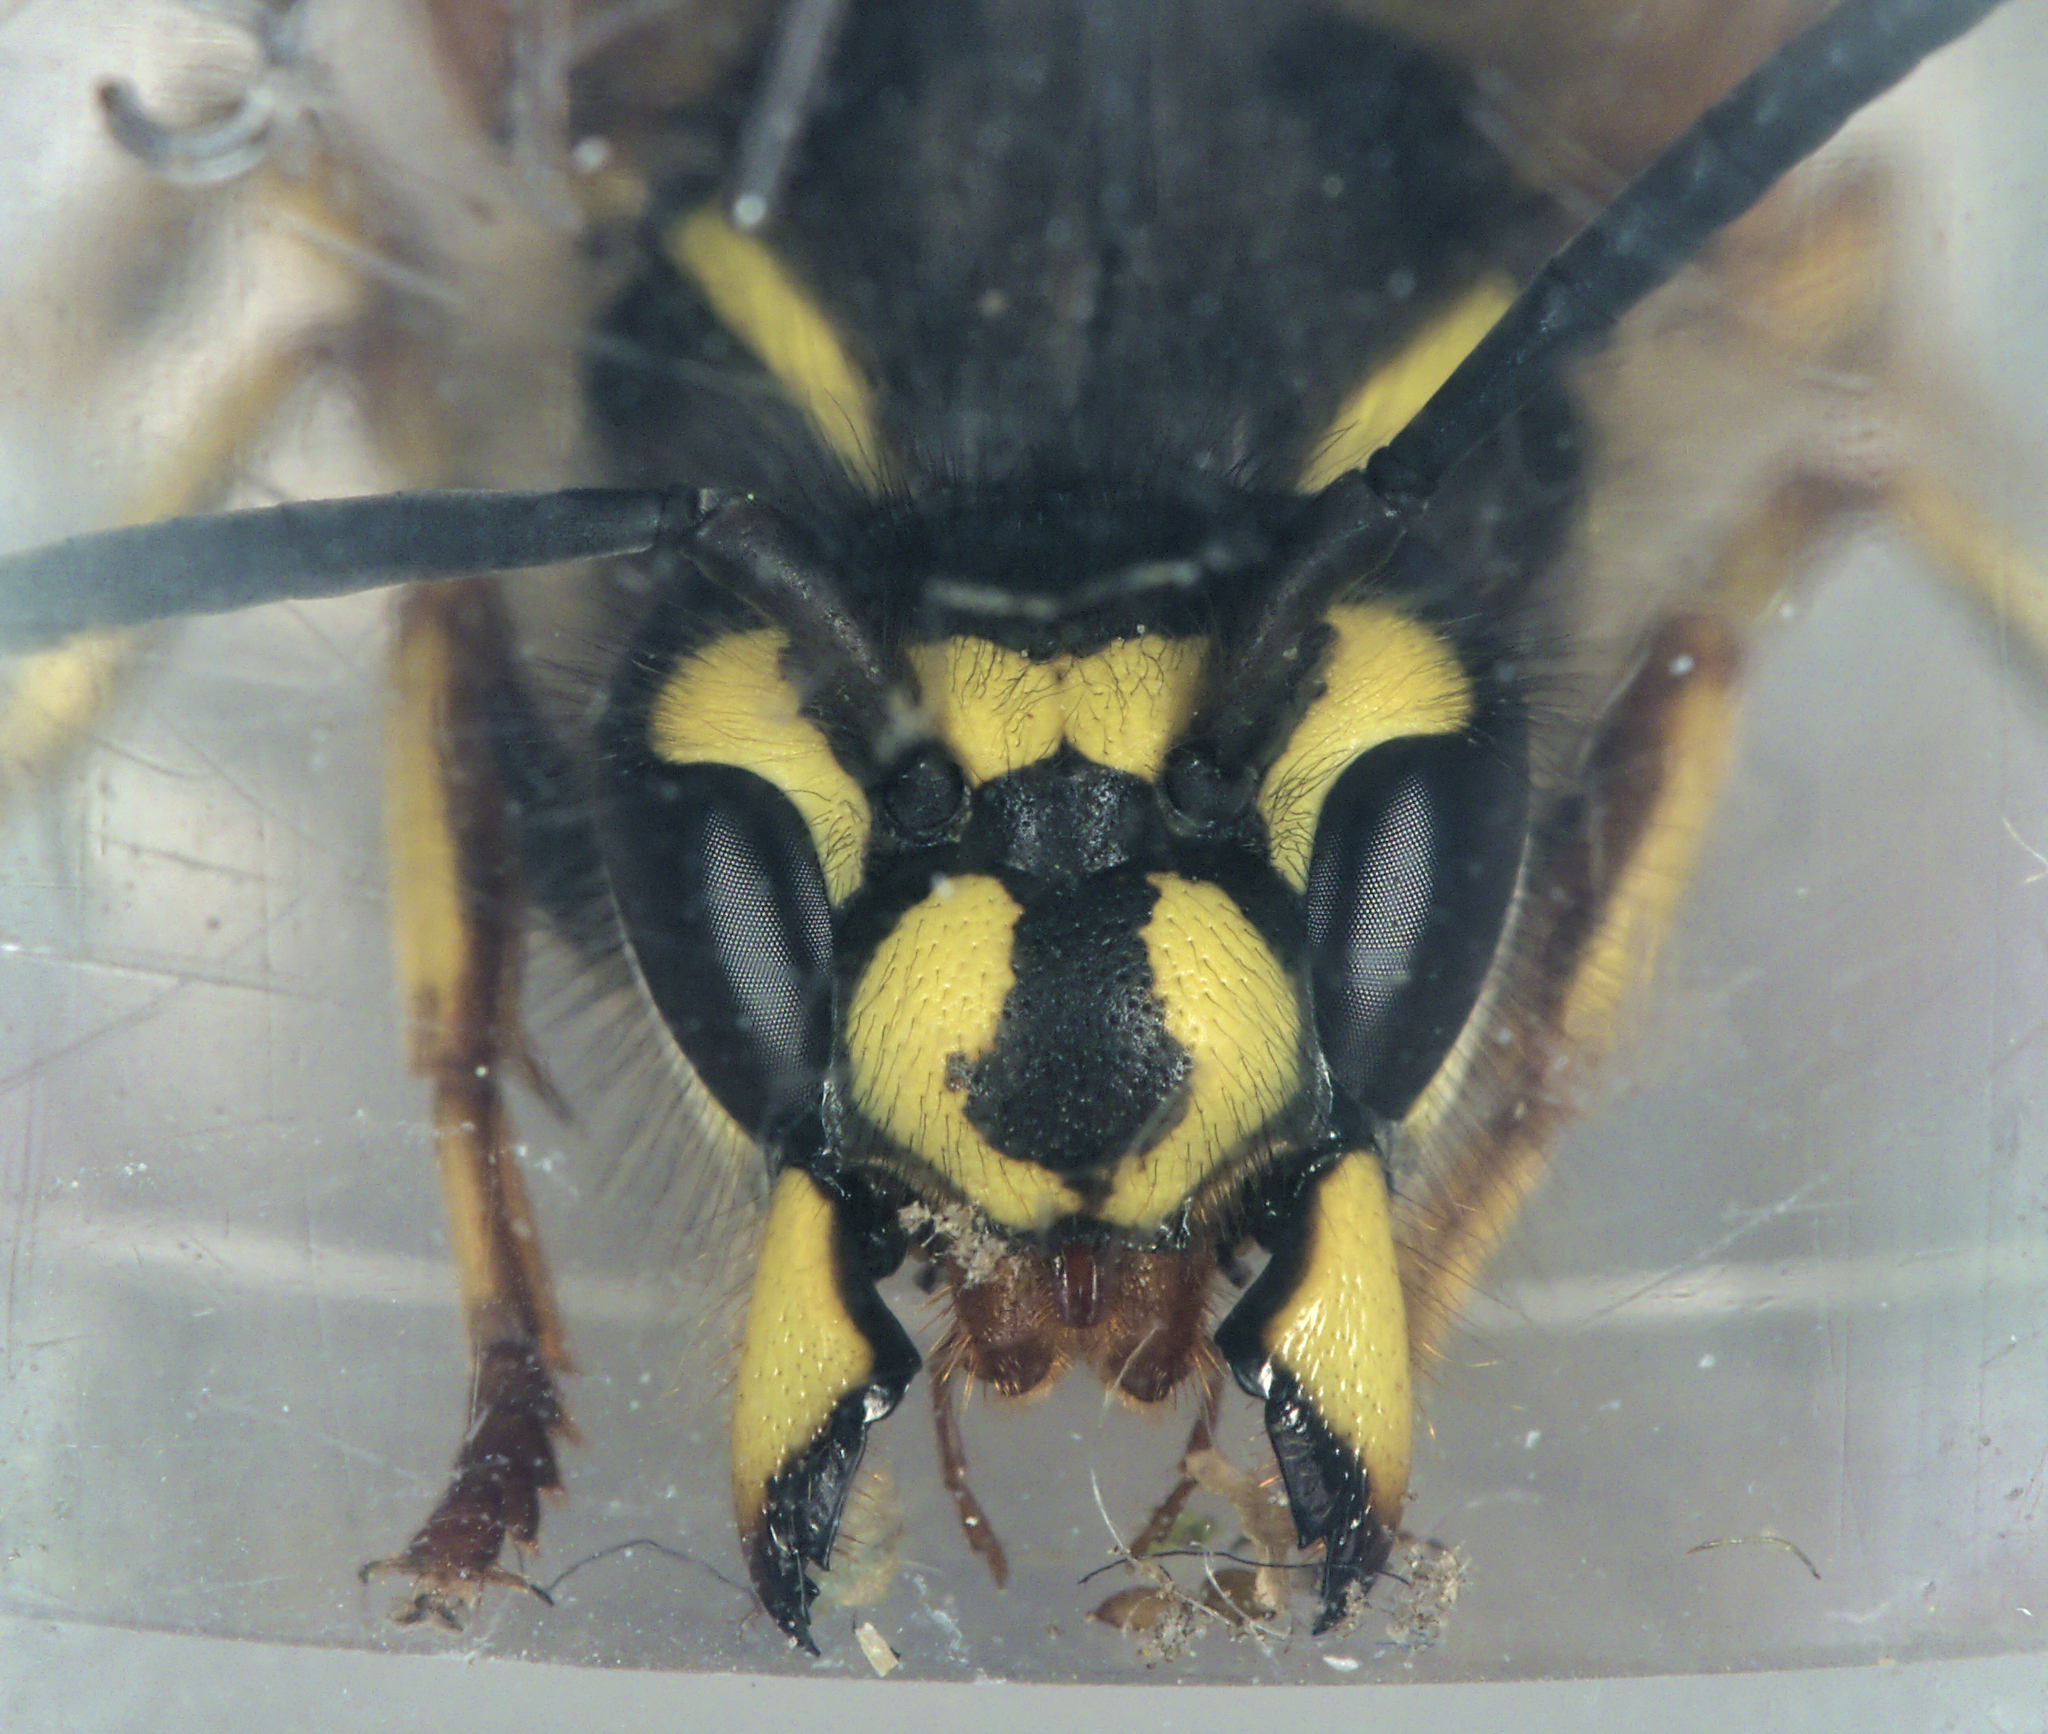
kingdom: Animalia
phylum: Arthropoda
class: Insecta
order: Hymenoptera
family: Vespidae
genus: Vespula
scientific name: Vespula vulgaris
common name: Common wasp
